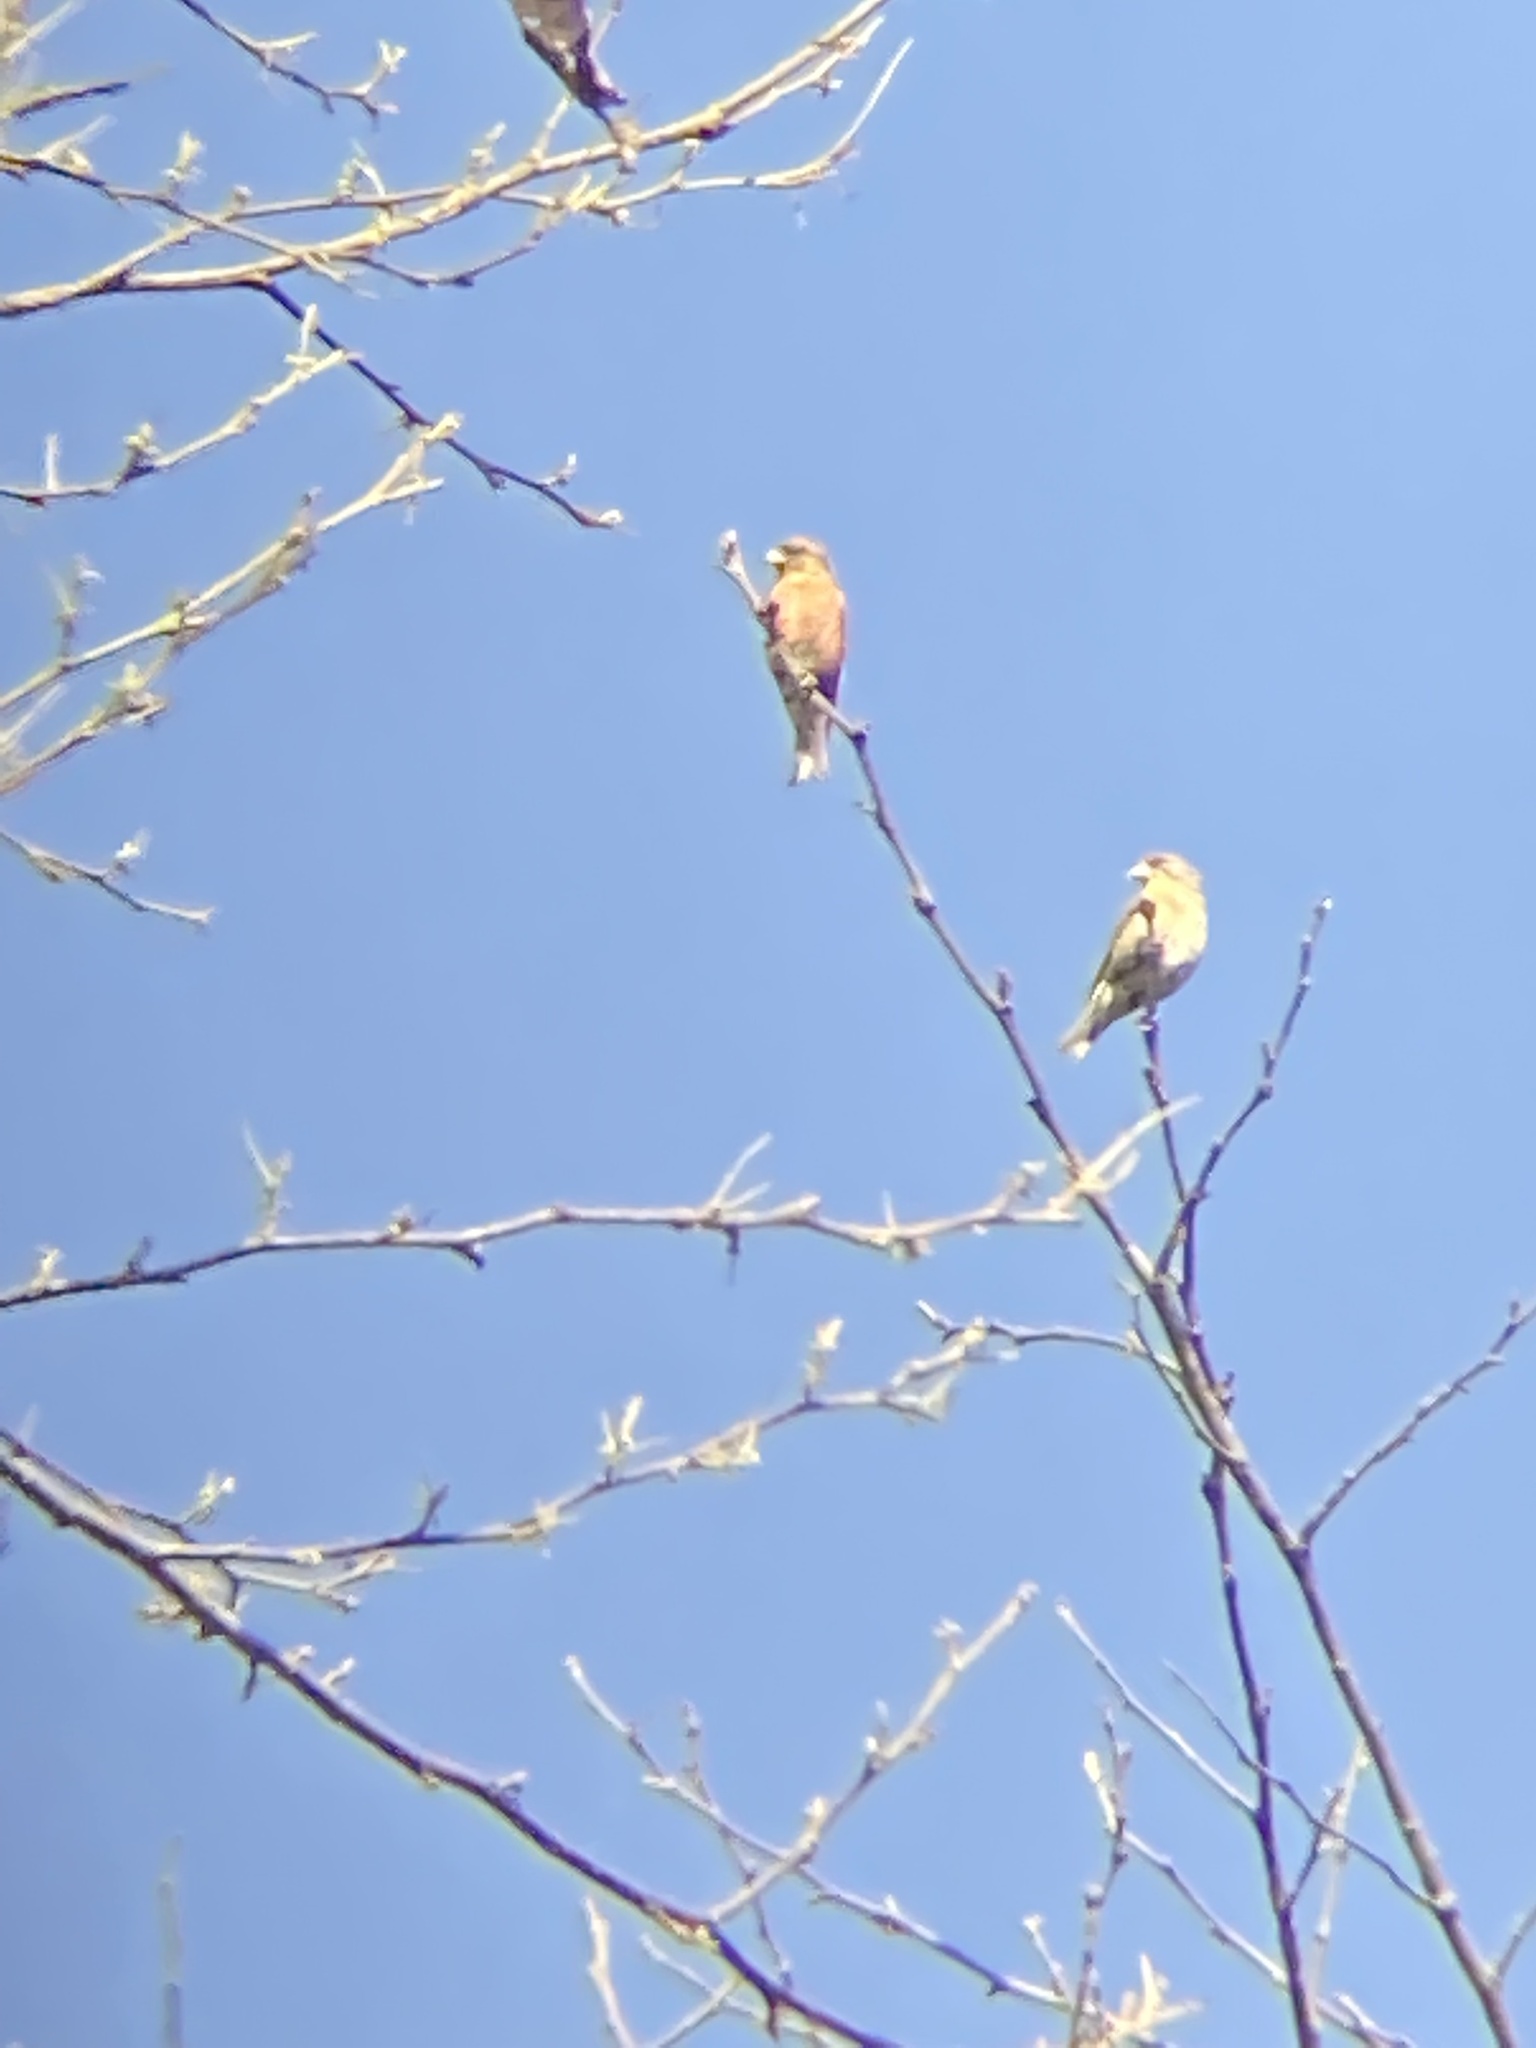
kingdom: Animalia
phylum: Chordata
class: Aves
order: Passeriformes
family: Fringillidae
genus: Loxia
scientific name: Loxia curvirostra
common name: Red crossbill
